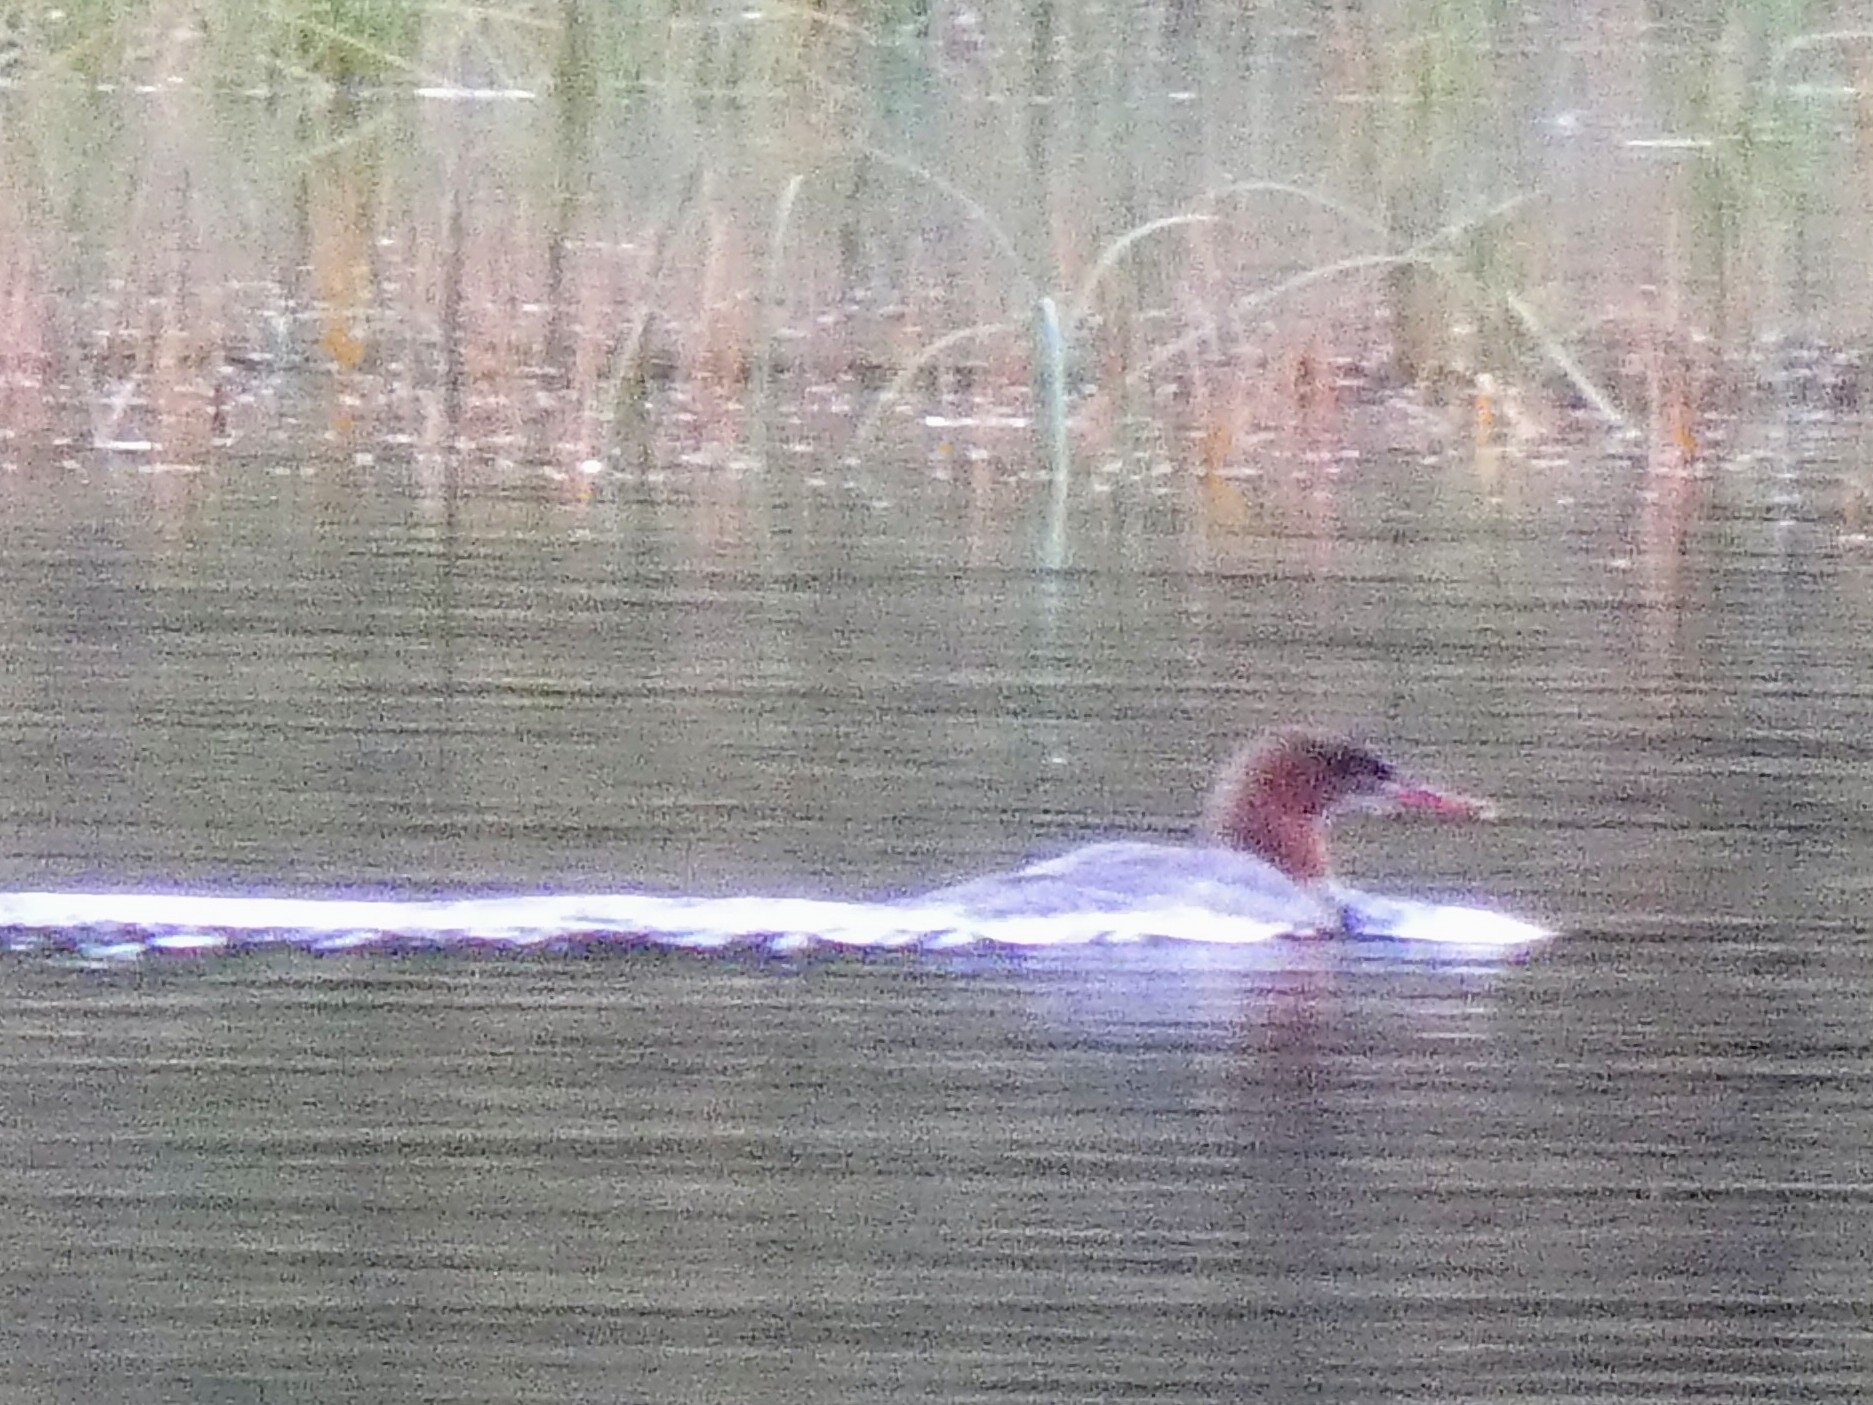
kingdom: Animalia
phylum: Chordata
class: Aves
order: Anseriformes
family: Anatidae
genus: Mergus
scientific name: Mergus merganser
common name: Common merganser
